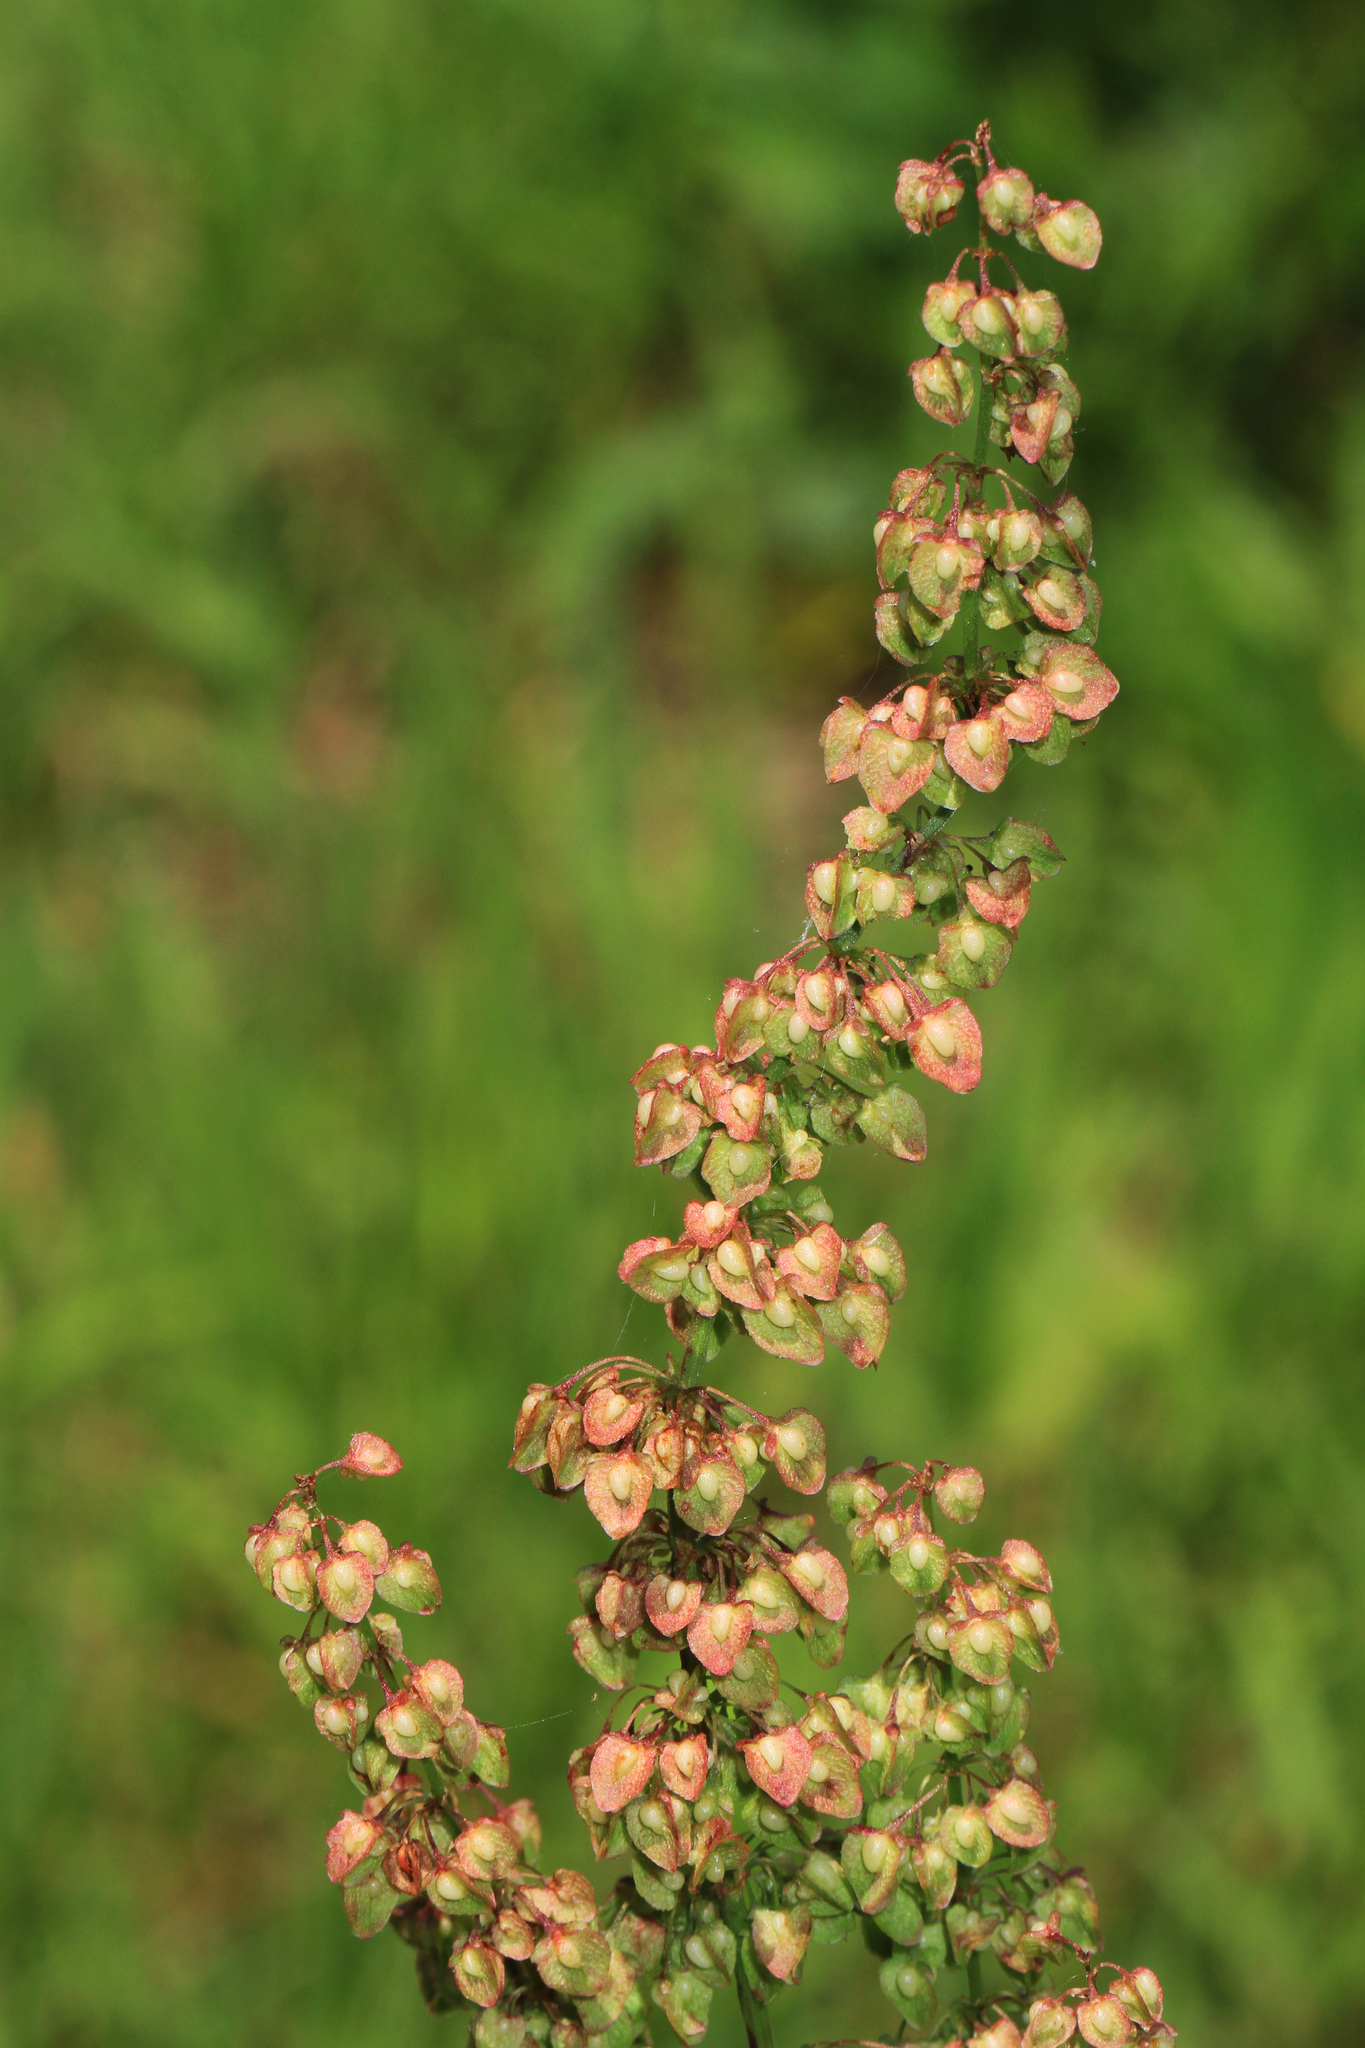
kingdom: Plantae
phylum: Tracheophyta
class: Magnoliopsida
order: Caryophyllales
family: Polygonaceae
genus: Rumex
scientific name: Rumex acetosella
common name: Common sheep sorrel
